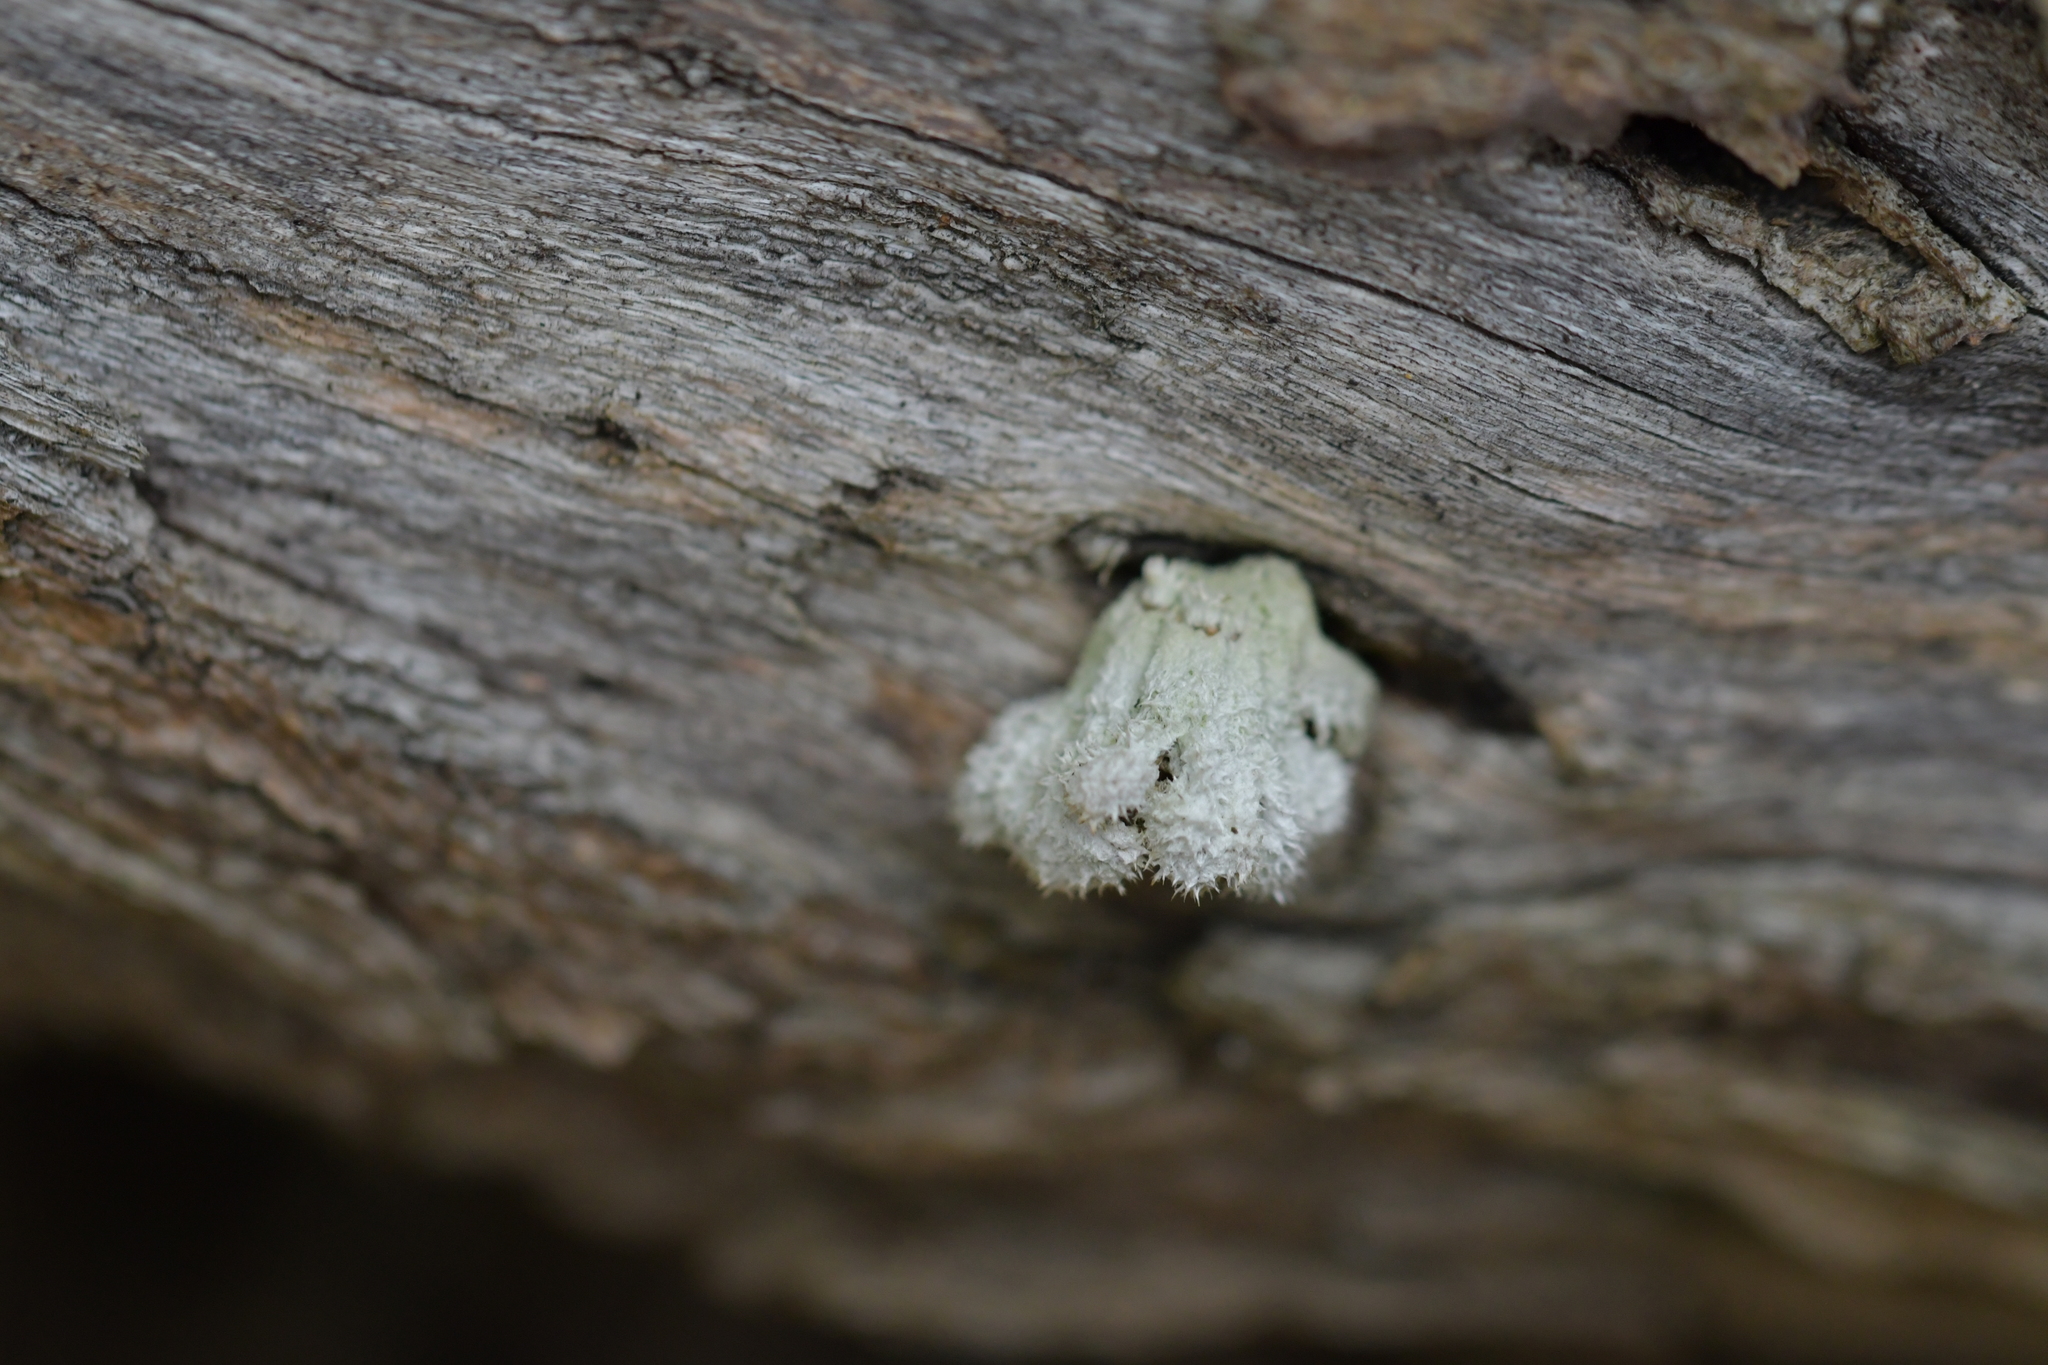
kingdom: Fungi
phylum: Basidiomycota
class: Agaricomycetes
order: Agaricales
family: Schizophyllaceae
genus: Schizophyllum
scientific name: Schizophyllum commune
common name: Common porecrust
